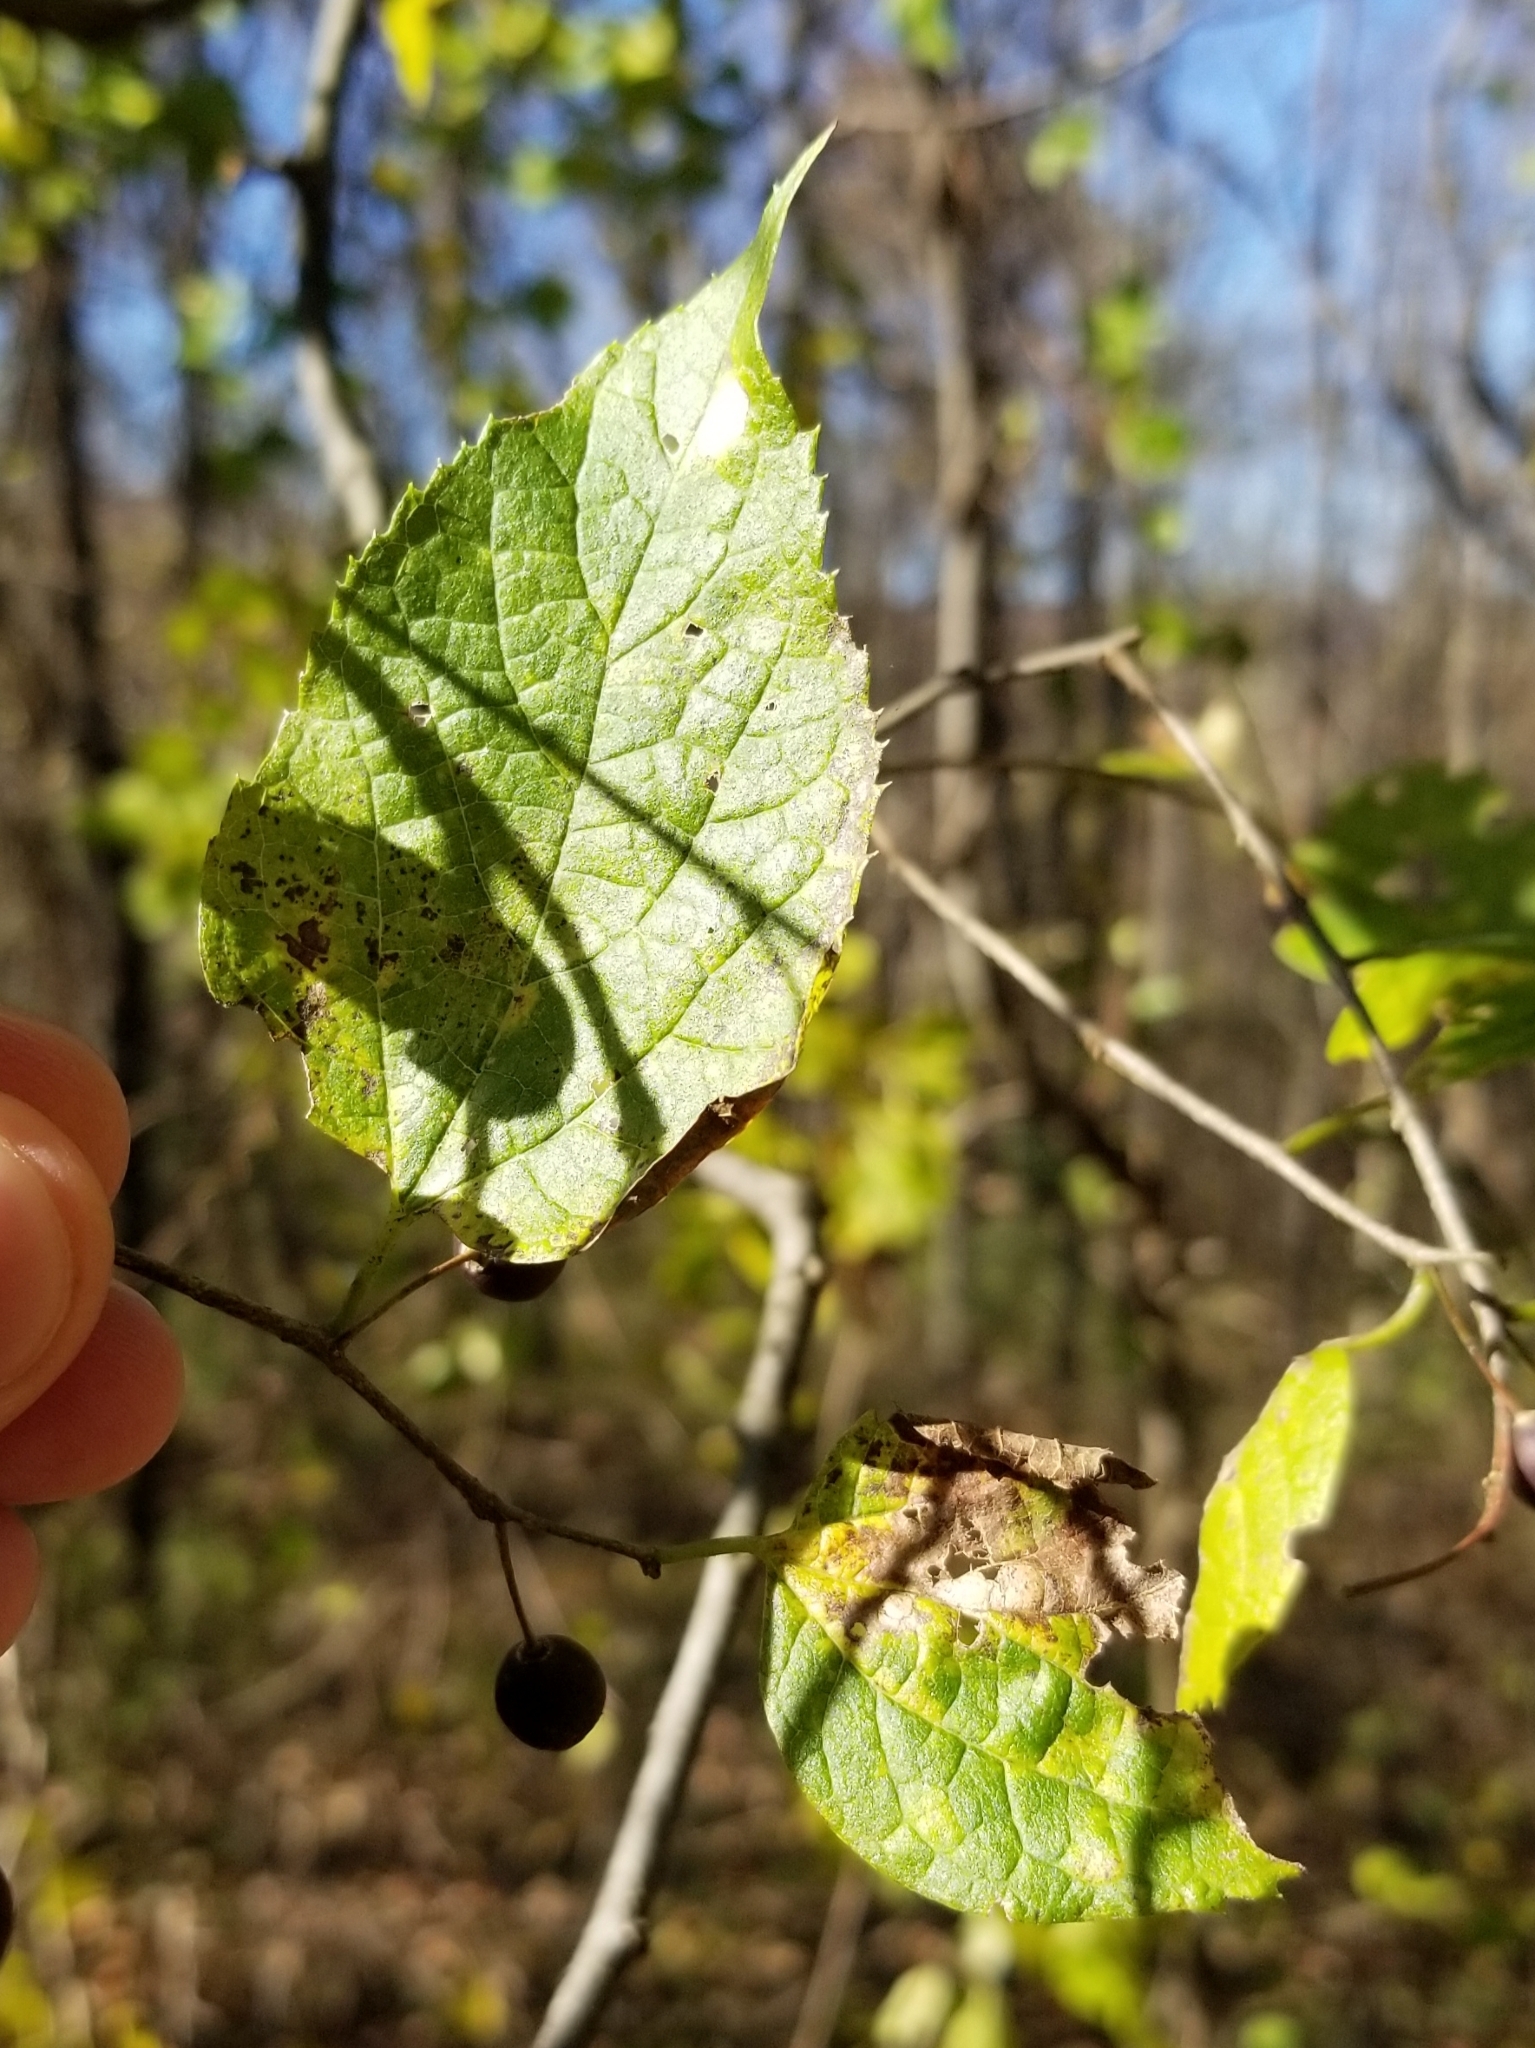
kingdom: Plantae
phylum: Tracheophyta
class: Magnoliopsida
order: Rosales
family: Cannabaceae
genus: Celtis
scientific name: Celtis occidentalis
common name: Common hackberry
